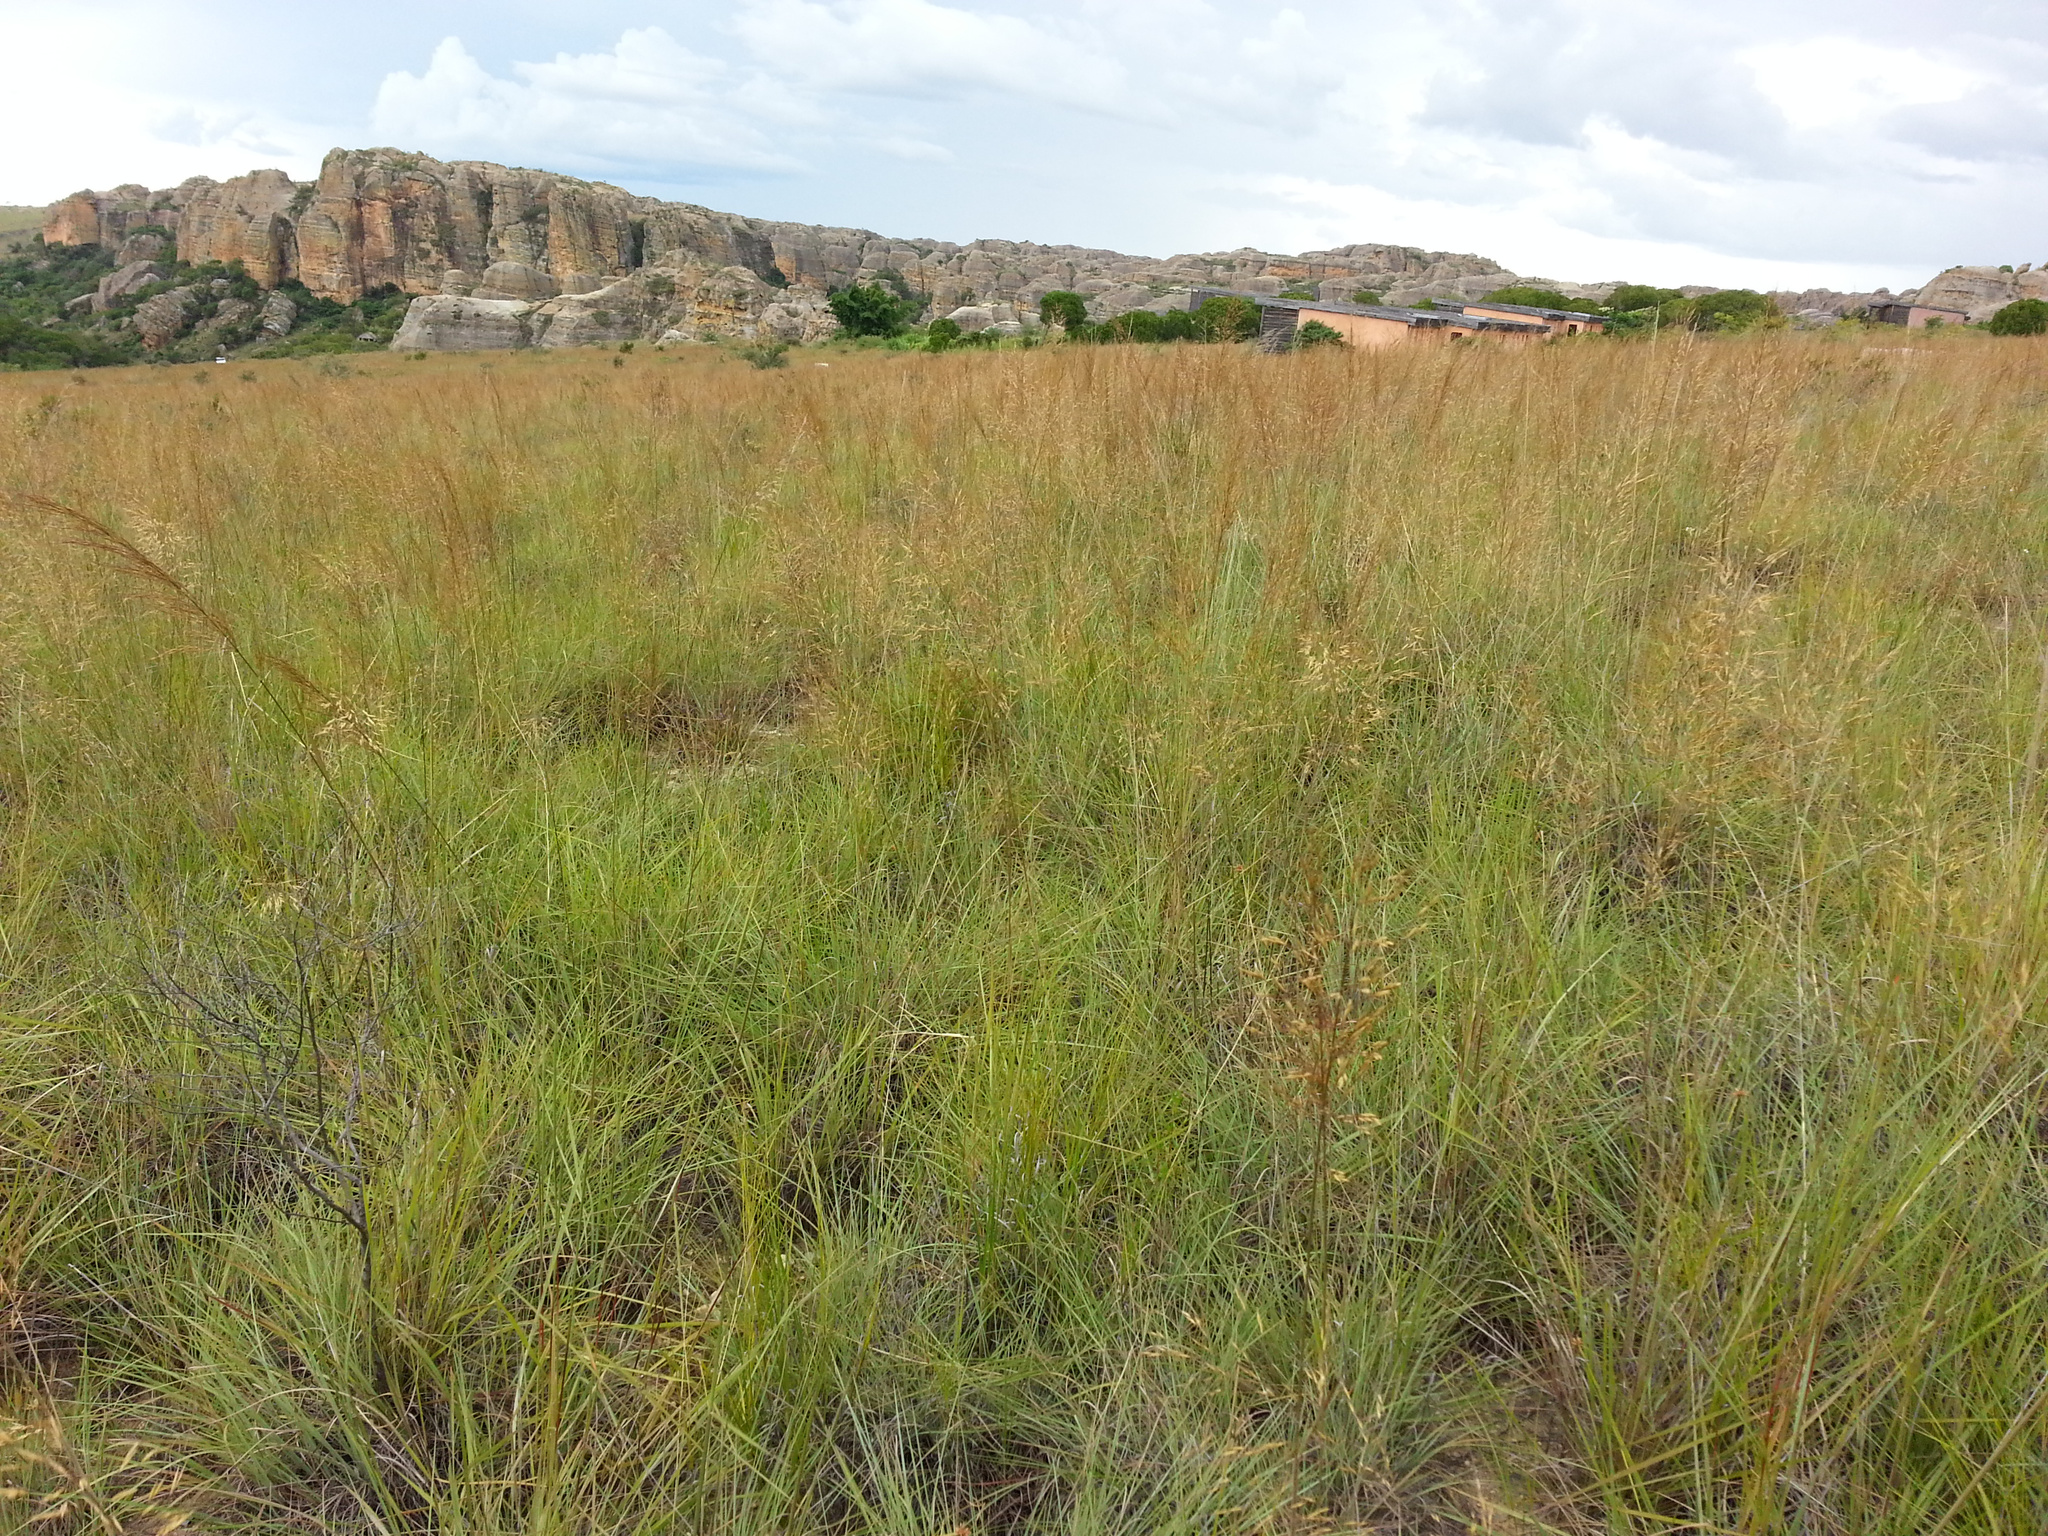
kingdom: Plantae
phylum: Tracheophyta
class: Liliopsida
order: Poales
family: Poaceae
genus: Loudetia
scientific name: Loudetia simplex
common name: Common russet grass
